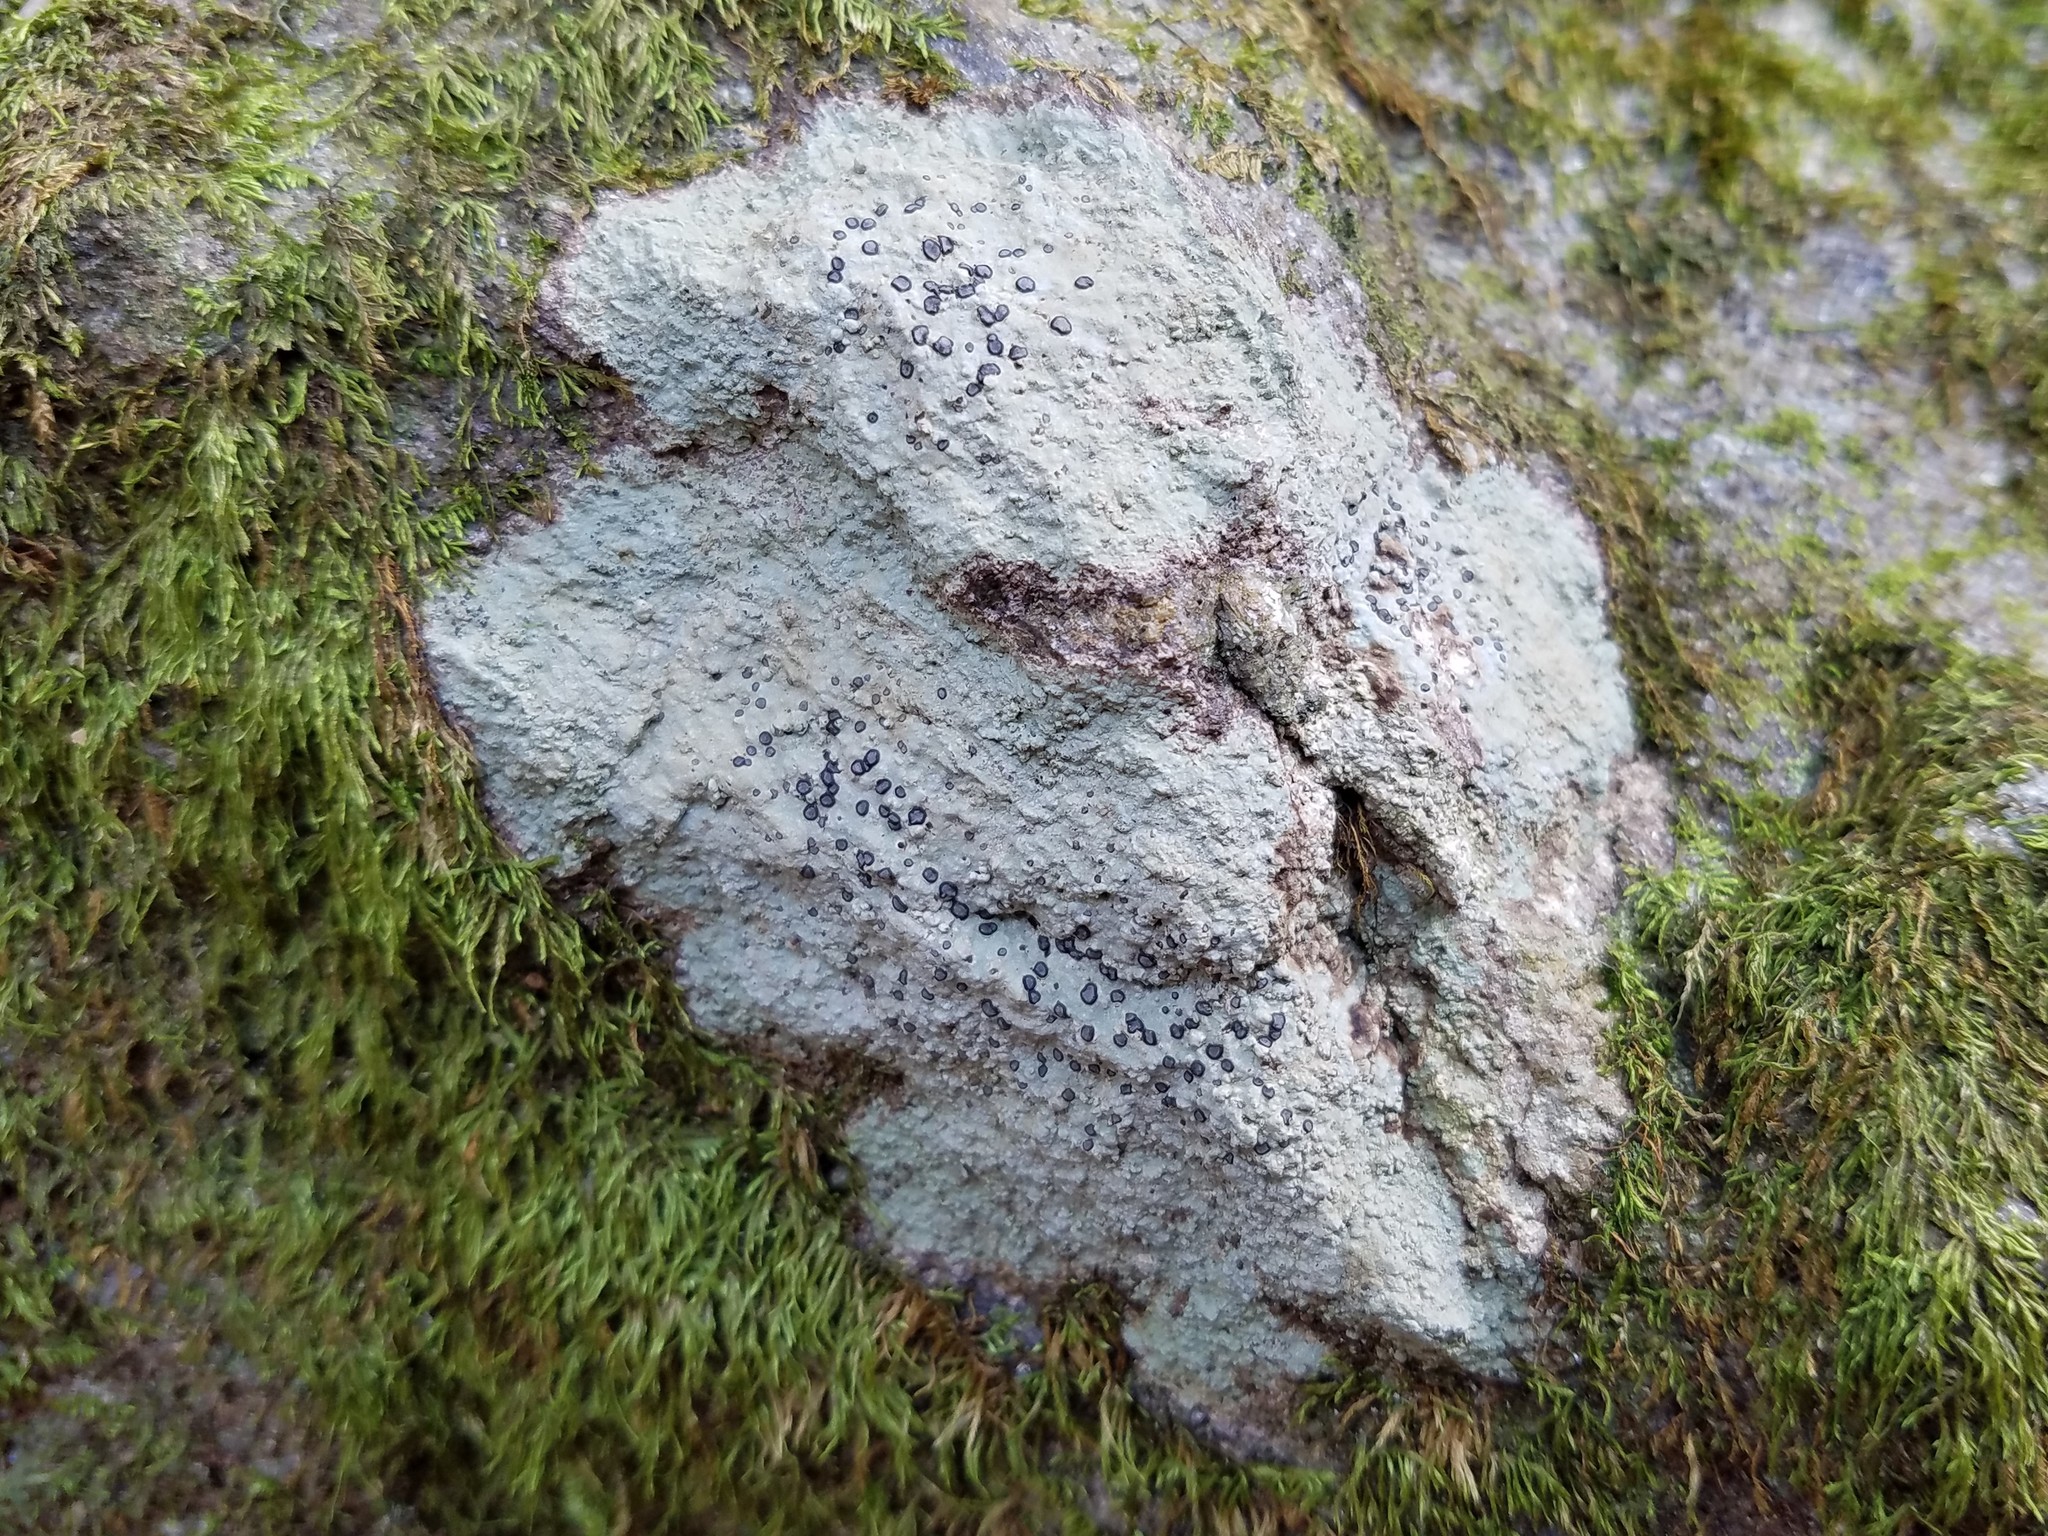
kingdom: Fungi
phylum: Ascomycota
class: Lecanoromycetes
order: Lecideales
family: Lecideaceae
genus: Porpidia
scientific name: Porpidia albocaerulescens
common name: Smokey-eyed boulder lichen
